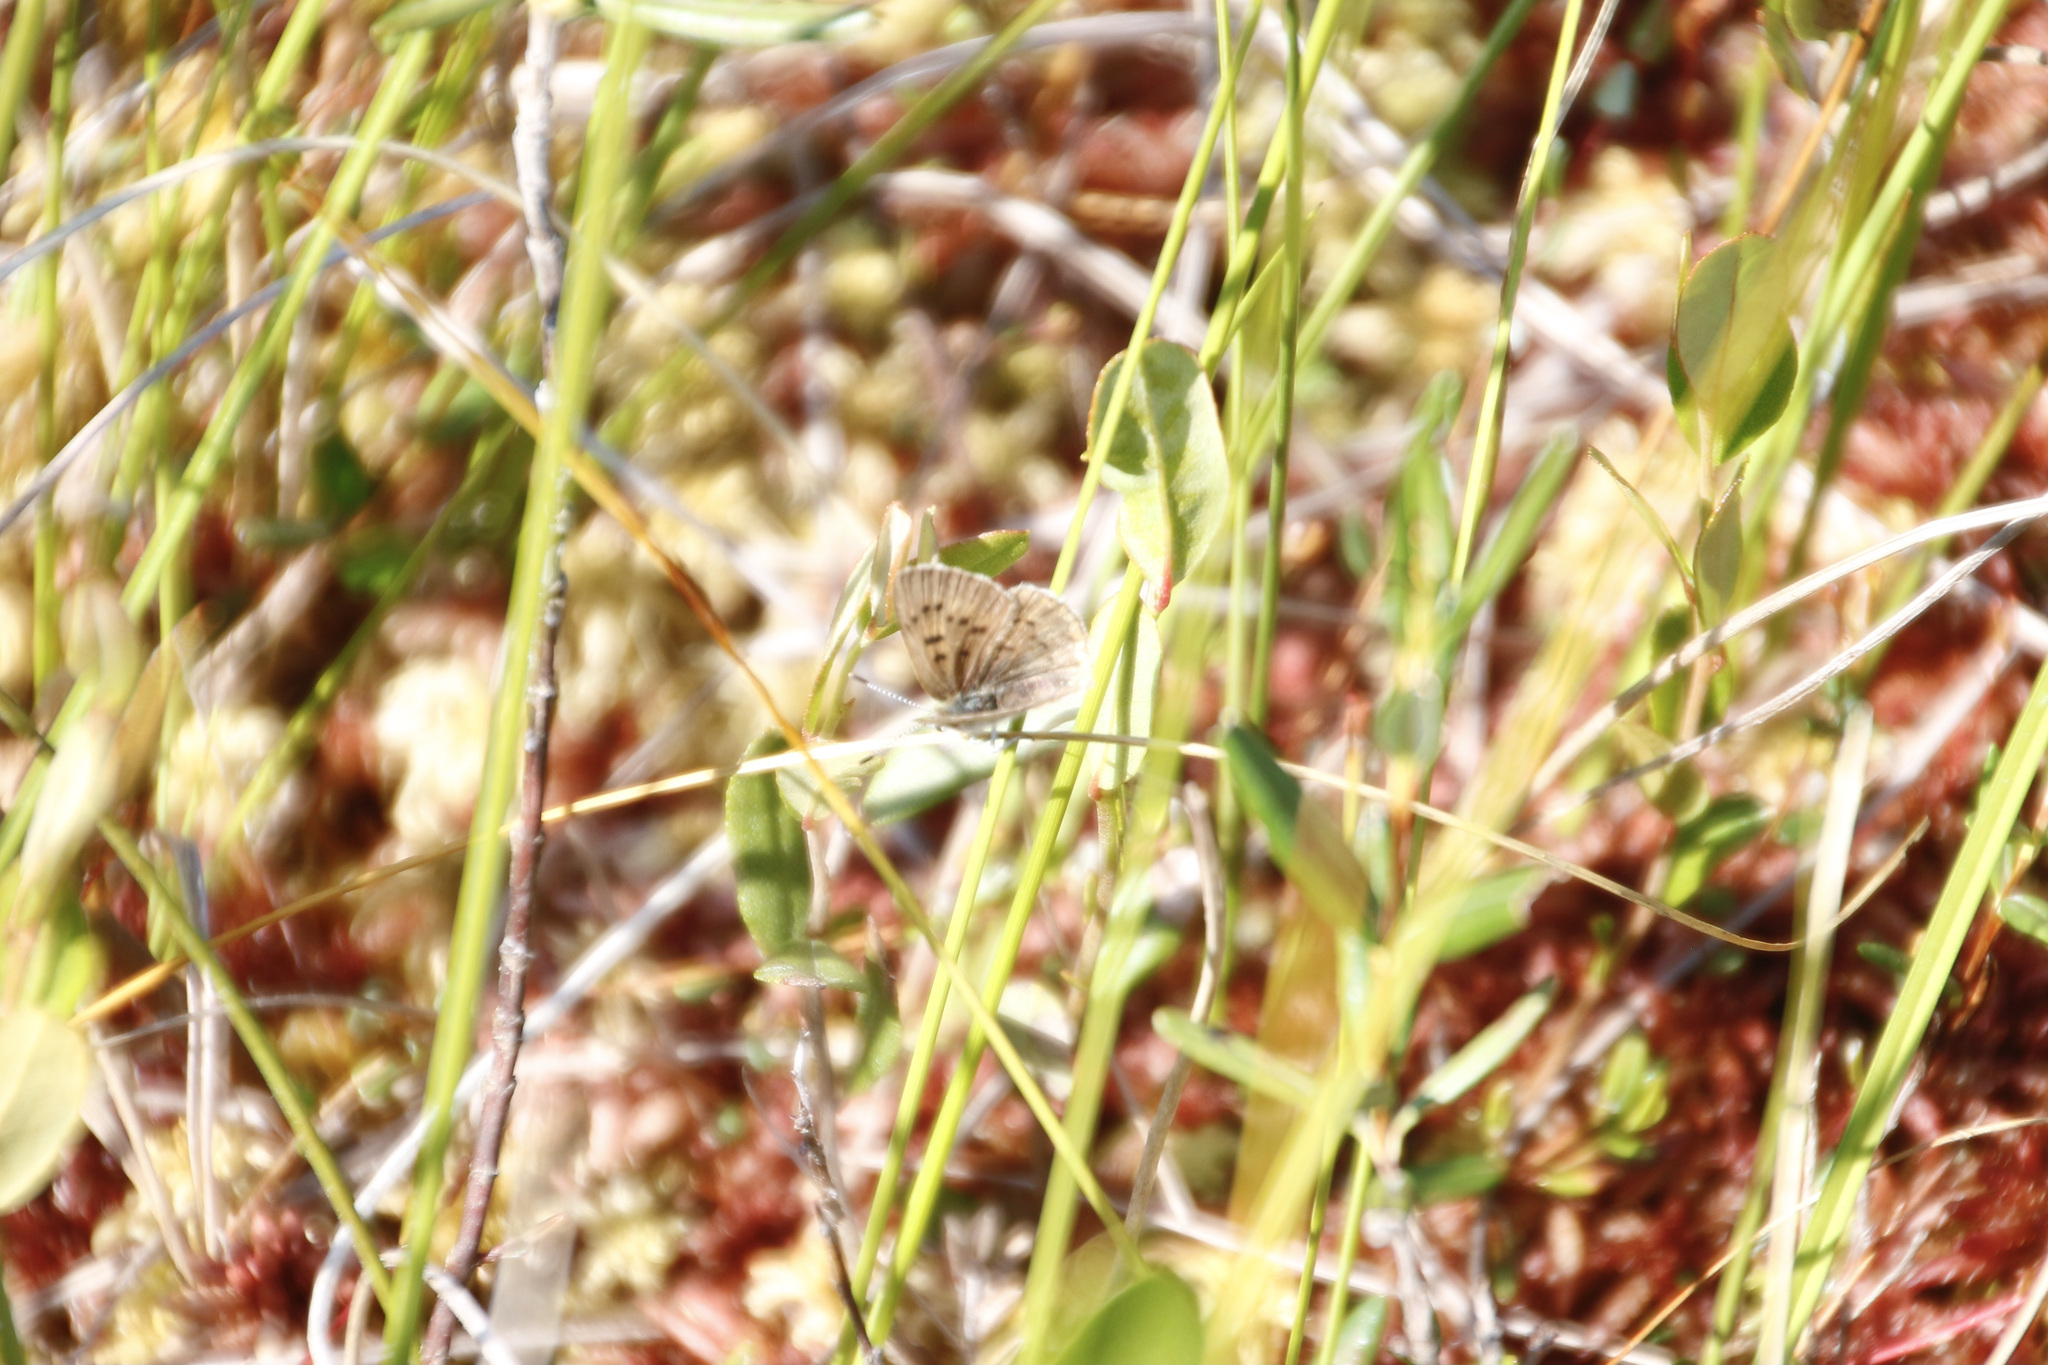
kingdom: Animalia
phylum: Arthropoda
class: Insecta
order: Lepidoptera
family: Lycaenidae
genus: Tharsalea
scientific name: Tharsalea epixanthe
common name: Bog copper
